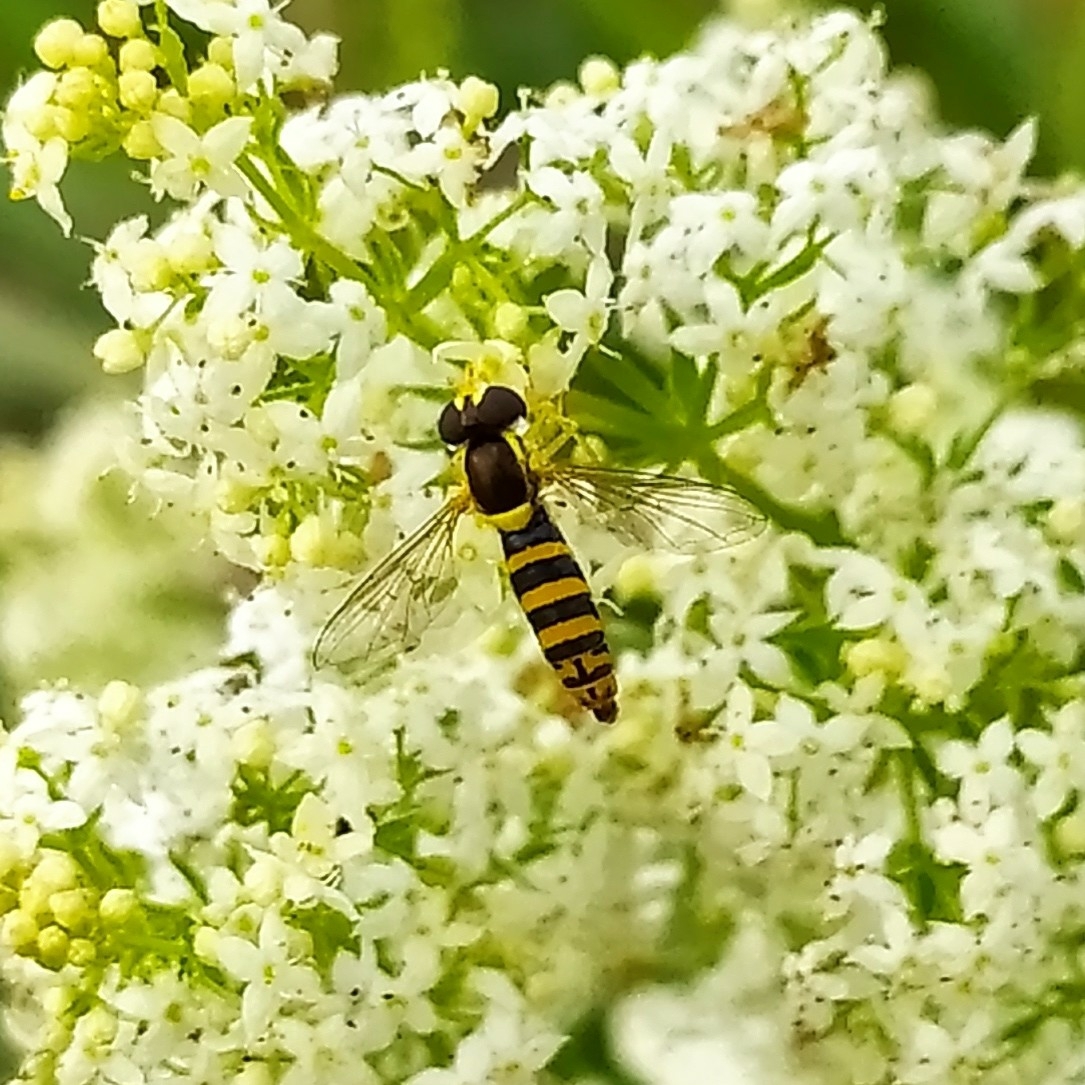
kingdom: Animalia
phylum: Arthropoda
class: Insecta
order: Diptera
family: Syrphidae
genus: Sphaerophoria
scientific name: Sphaerophoria scripta
